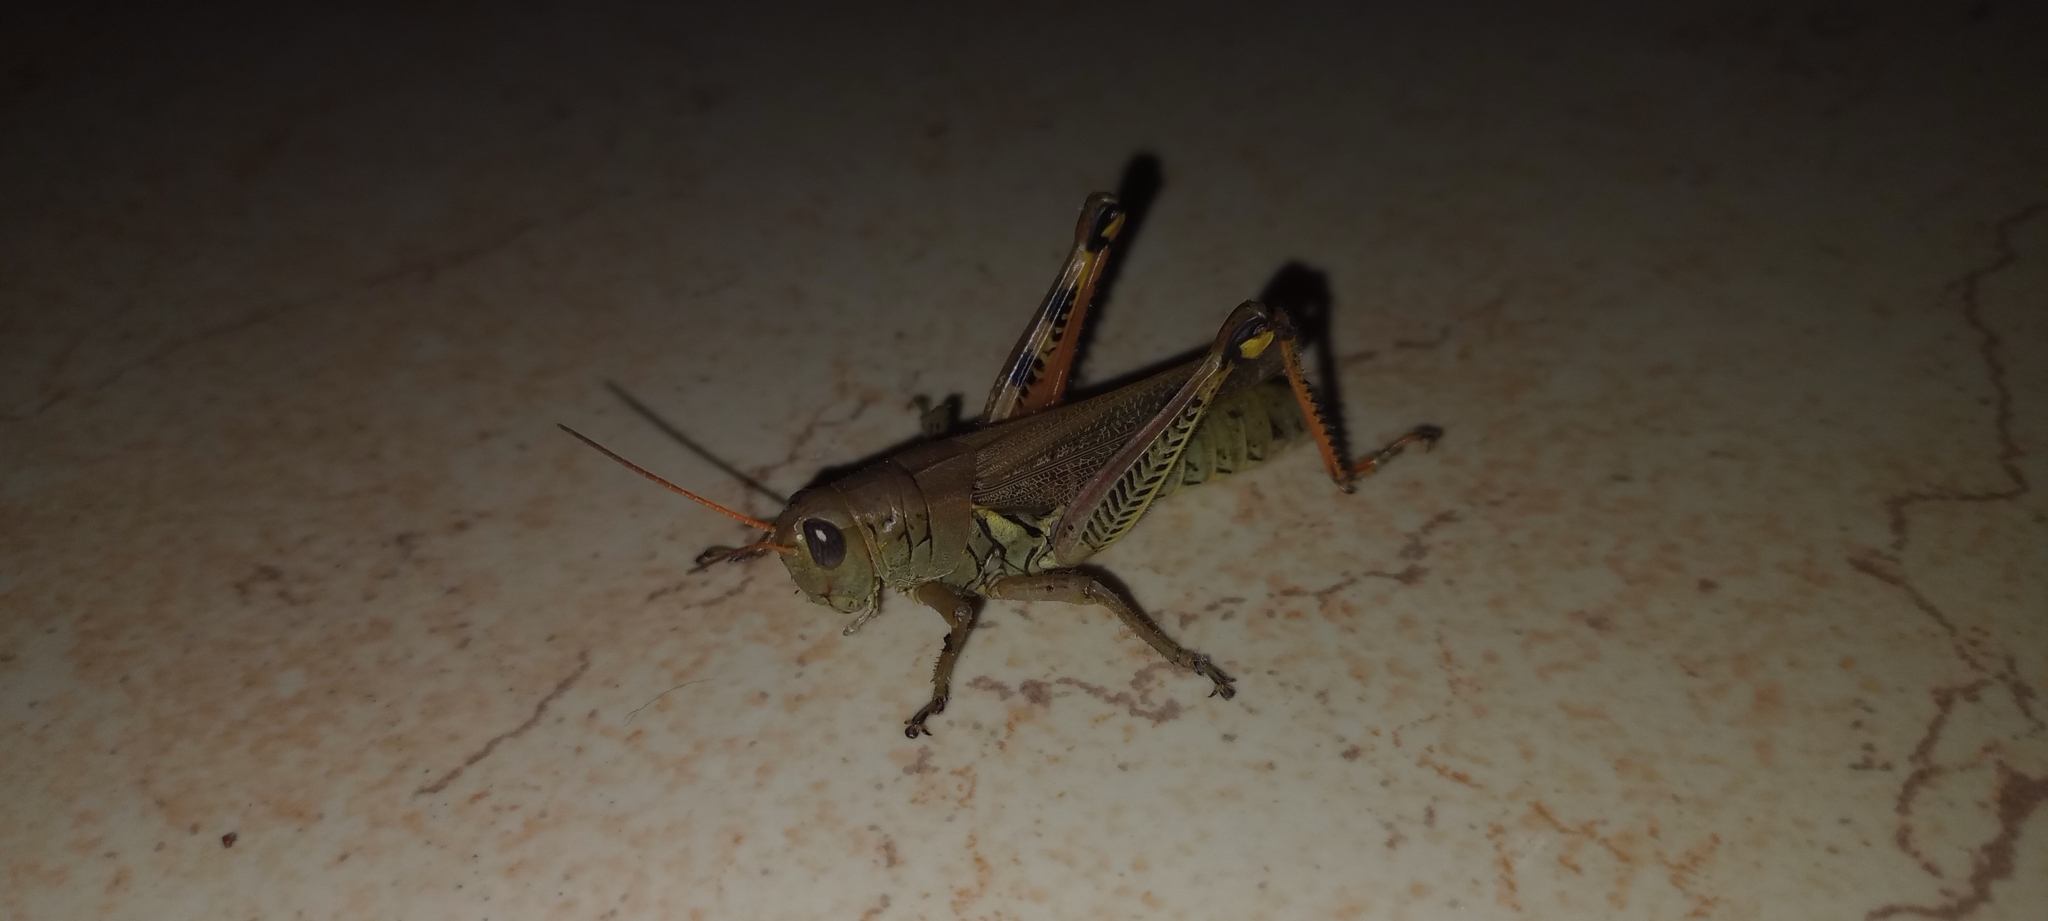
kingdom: Animalia
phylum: Arthropoda
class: Insecta
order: Orthoptera
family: Acrididae
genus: Melanoplus
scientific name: Melanoplus differentialis
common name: Differential grasshopper
